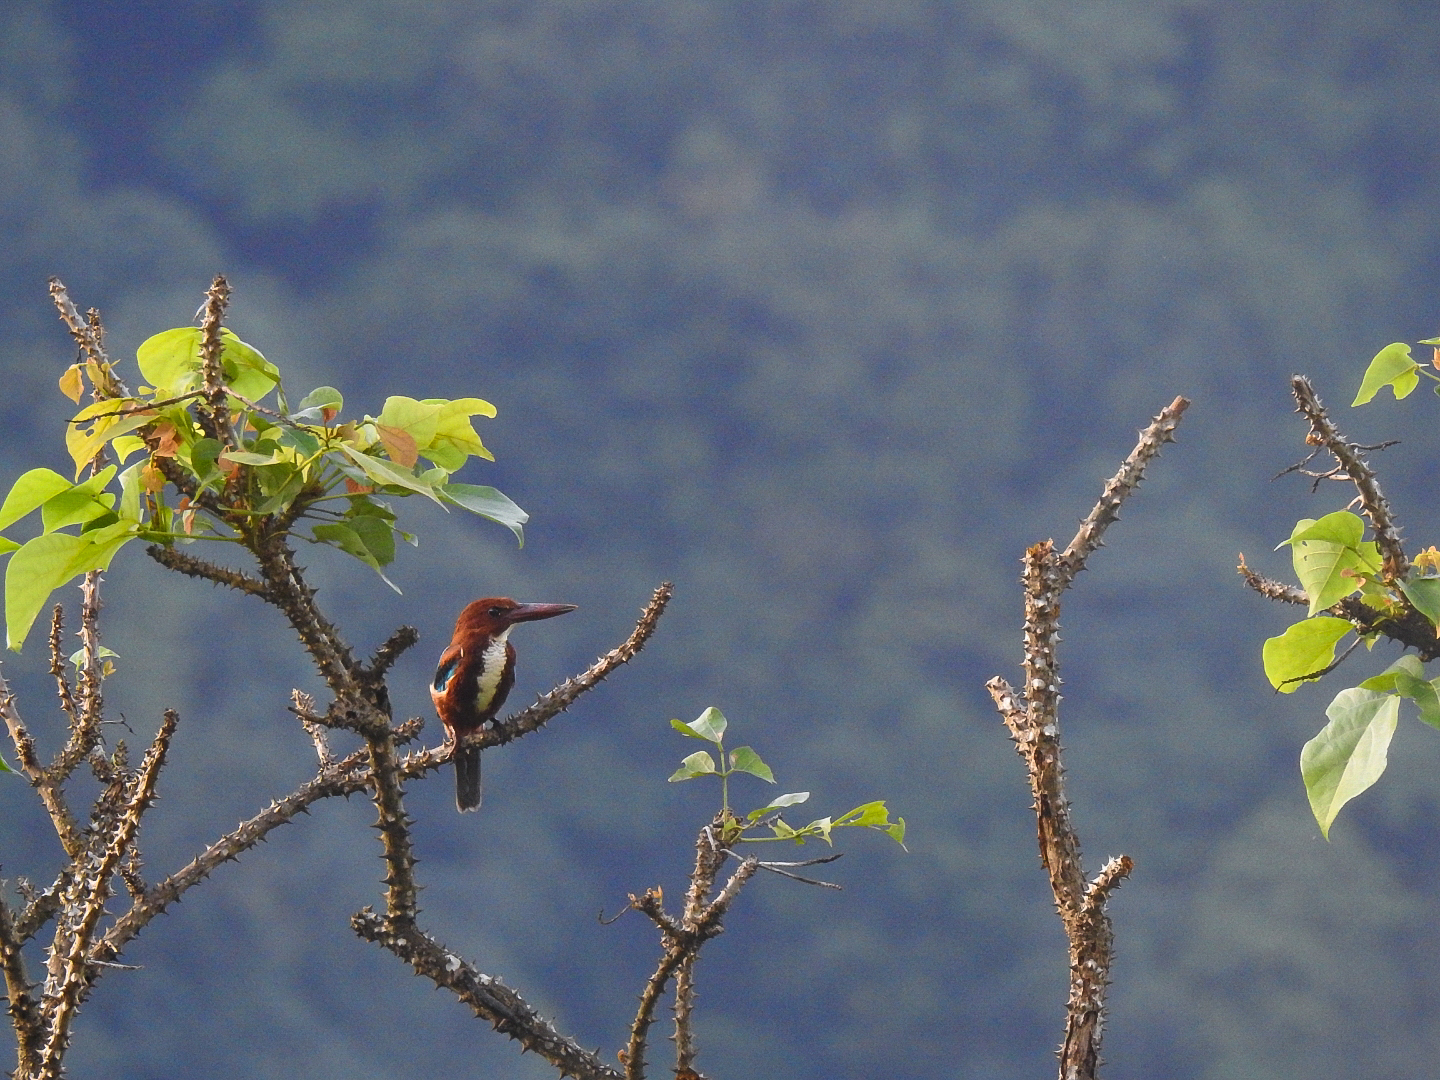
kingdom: Animalia
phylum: Chordata
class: Aves
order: Coraciiformes
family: Alcedinidae
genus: Halcyon
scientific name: Halcyon smyrnensis
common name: White-throated kingfisher
